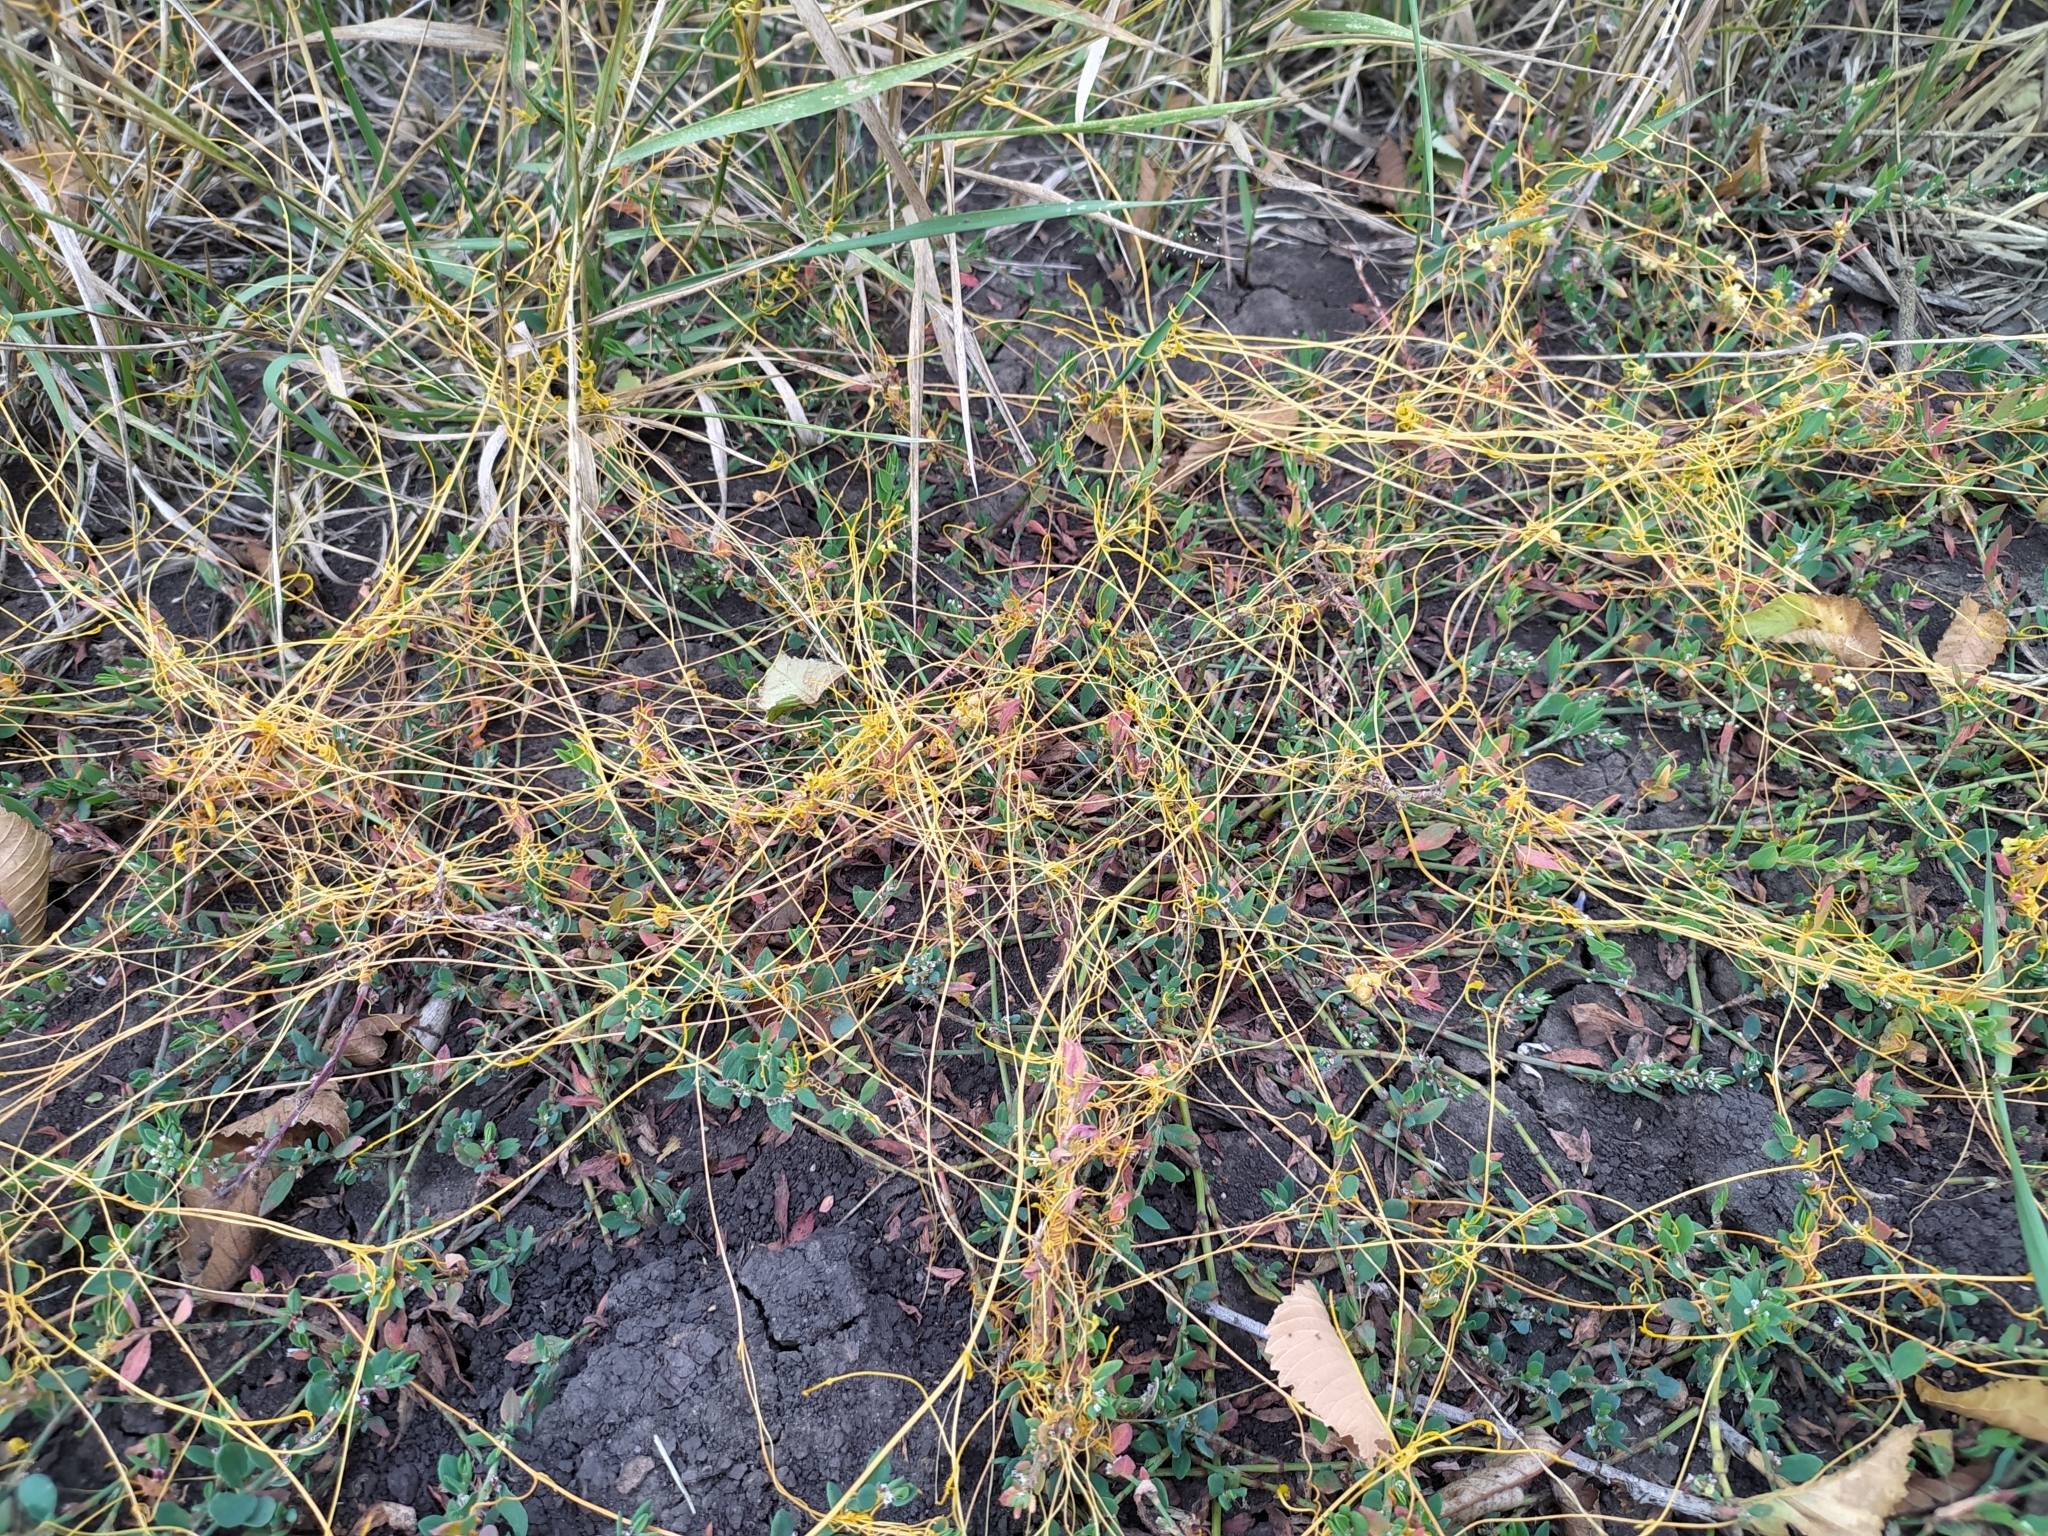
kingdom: Plantae
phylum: Tracheophyta
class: Magnoliopsida
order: Solanales
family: Convolvulaceae
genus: Cuscuta
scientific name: Cuscuta campestris
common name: Yellow dodder
